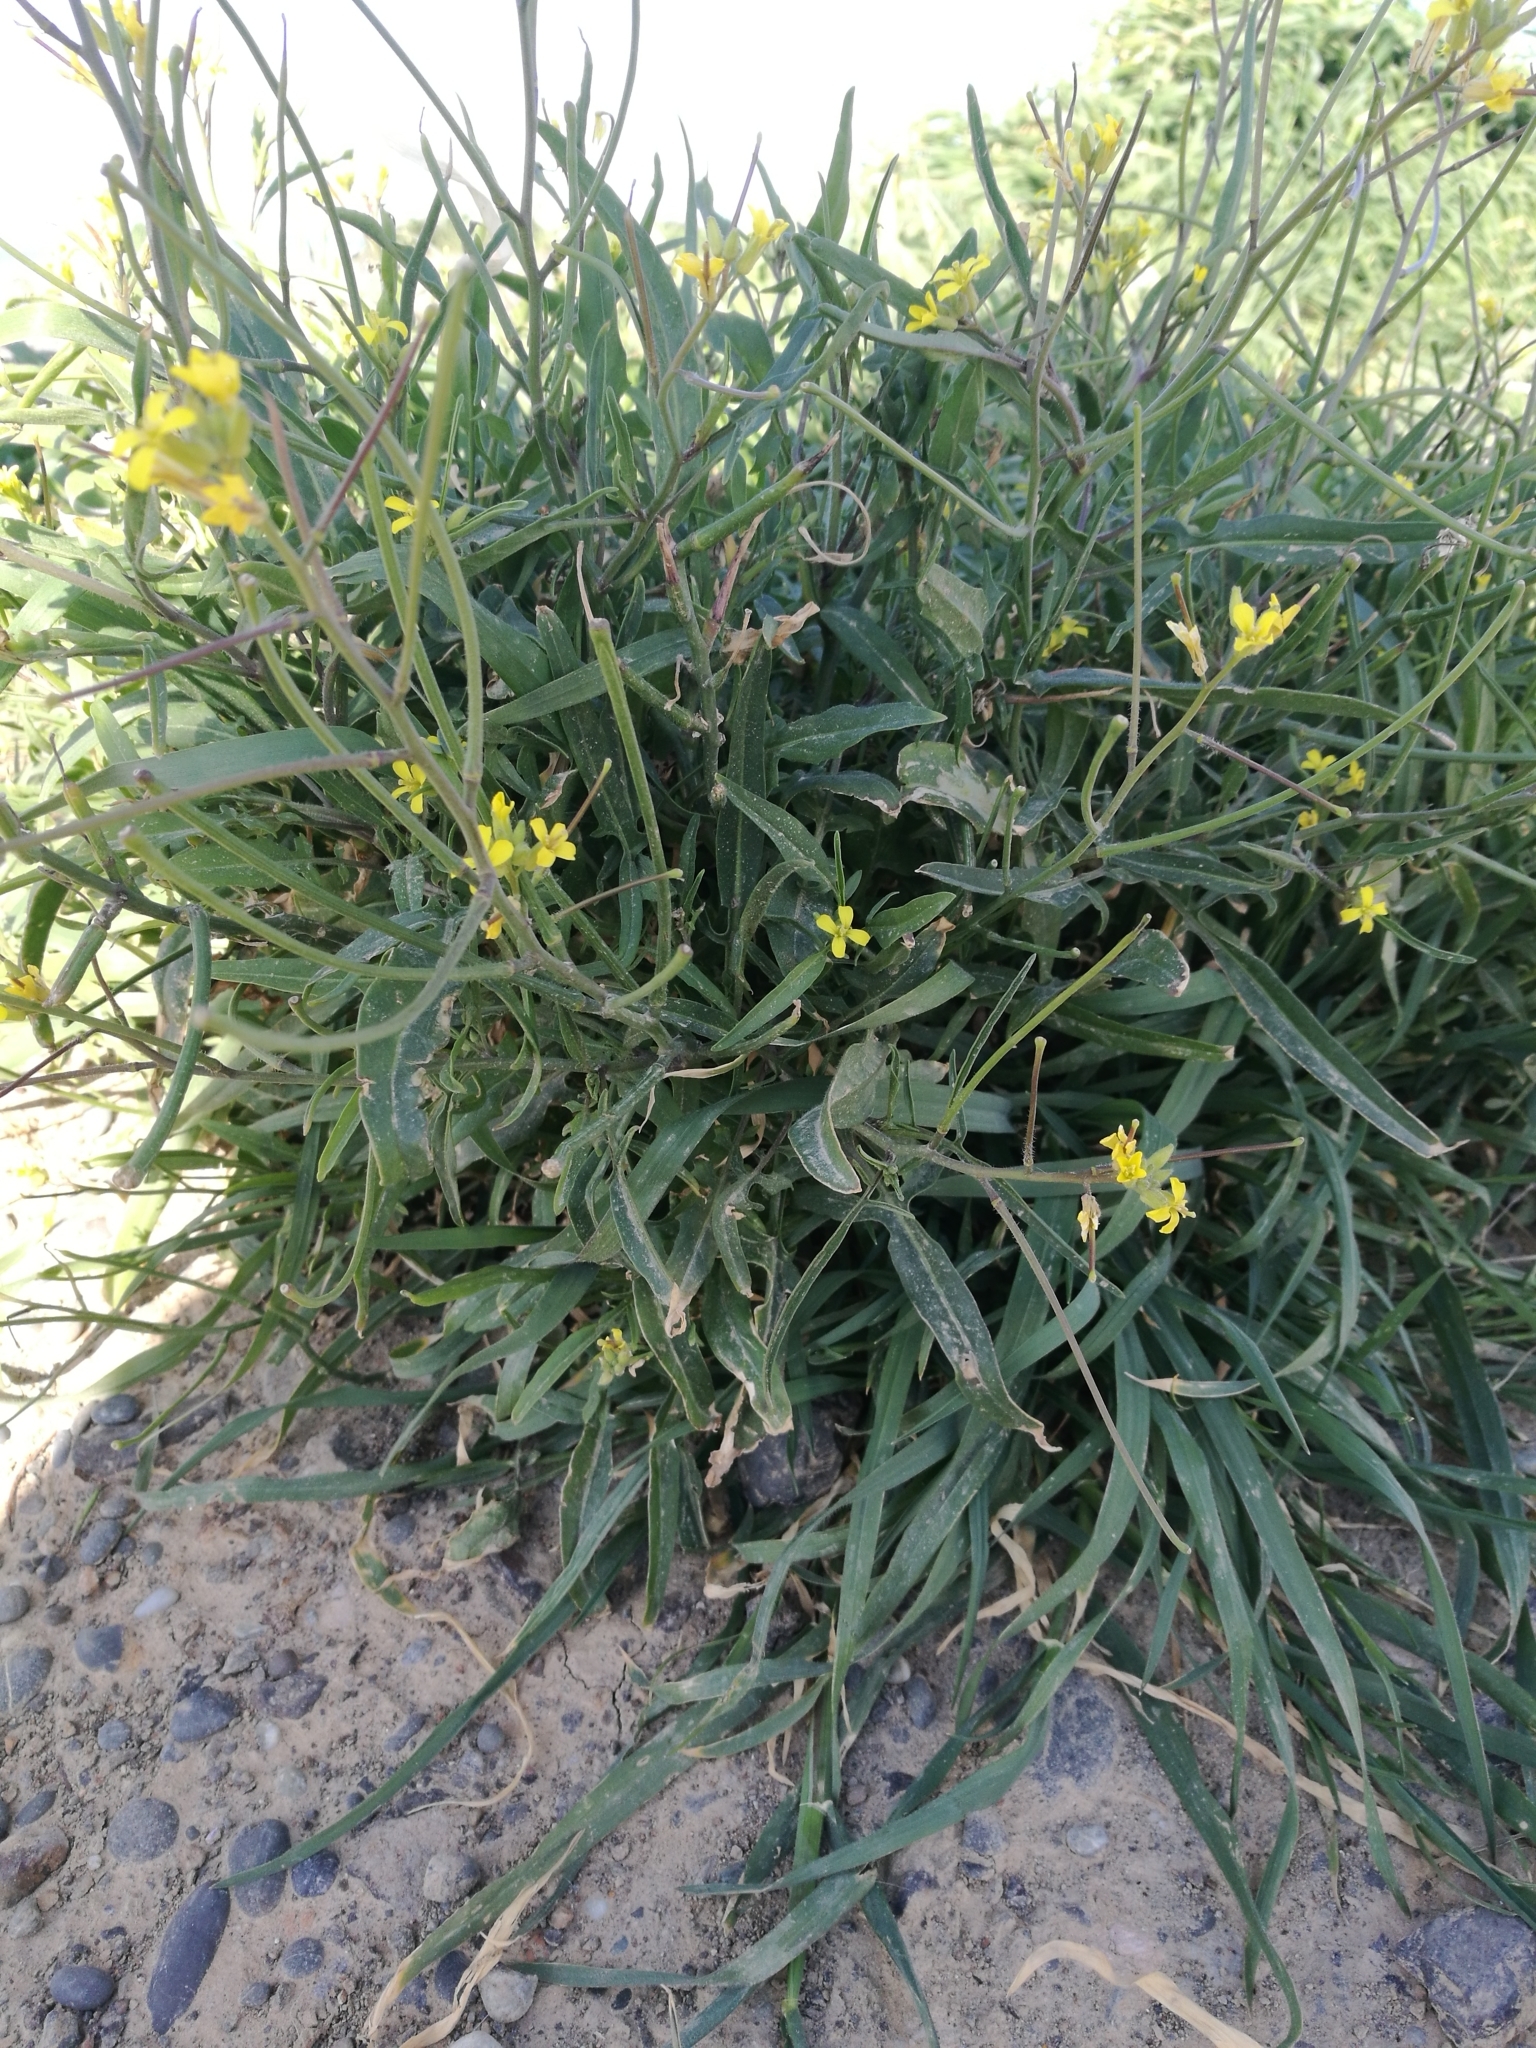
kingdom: Plantae
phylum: Tracheophyta
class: Magnoliopsida
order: Brassicales
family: Brassicaceae
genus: Sisymbrium
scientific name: Sisymbrium orientale
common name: Eastern rocket
